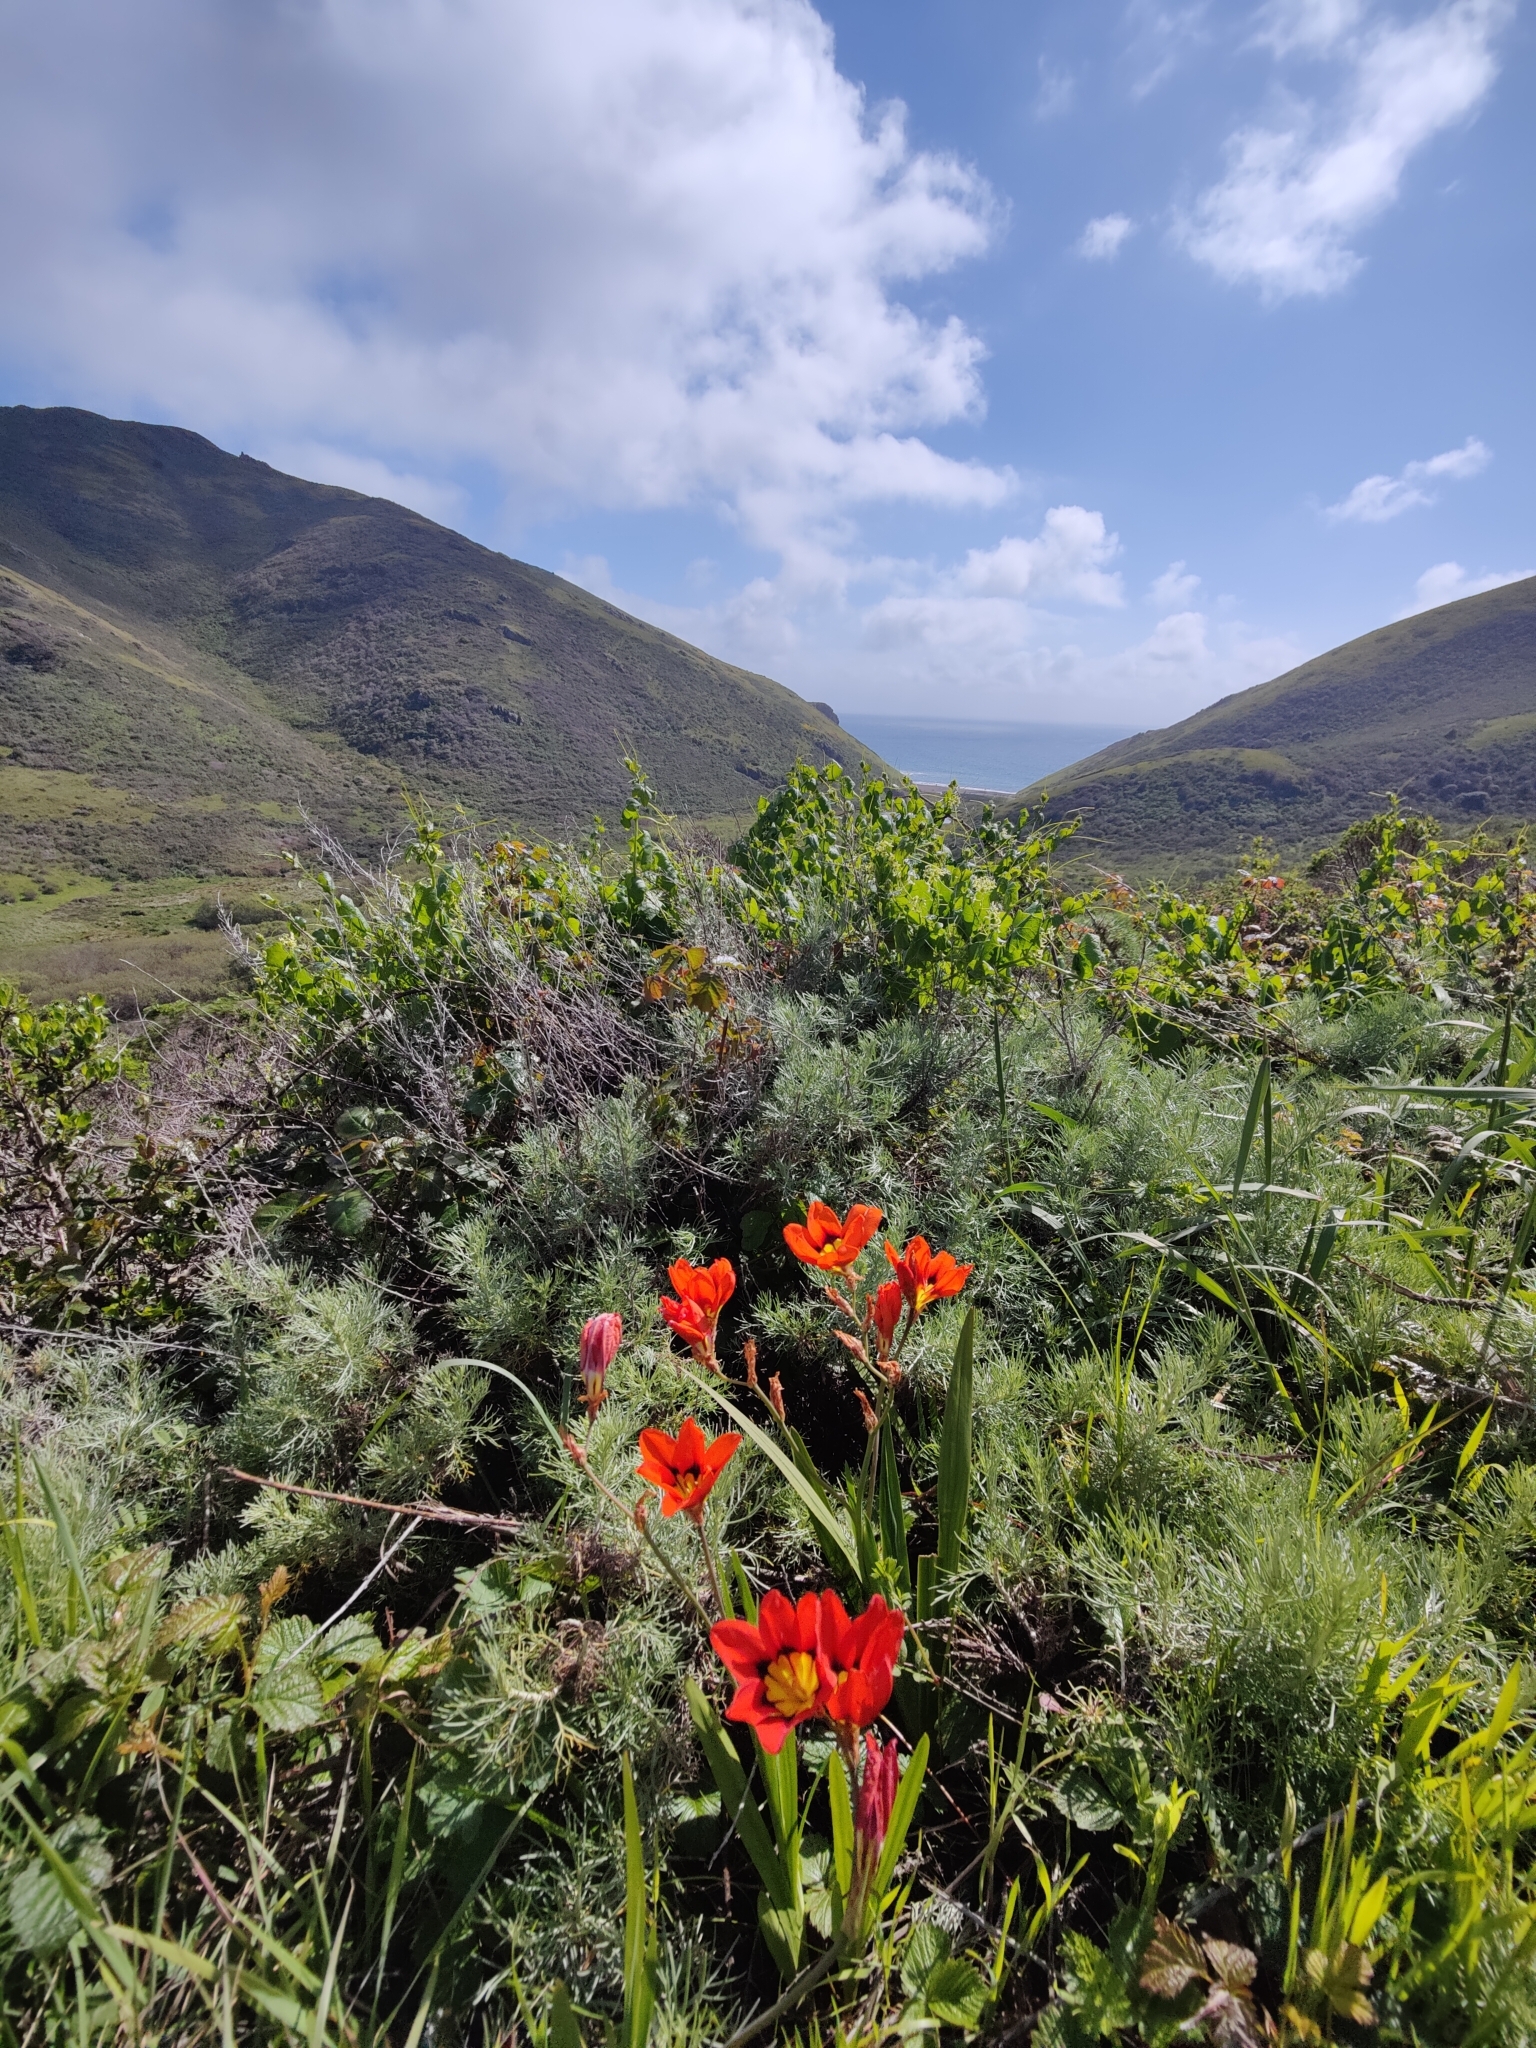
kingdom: Plantae
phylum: Tracheophyta
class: Liliopsida
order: Asparagales
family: Iridaceae
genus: Sparaxis
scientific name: Sparaxis tricolor
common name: Wandflower
